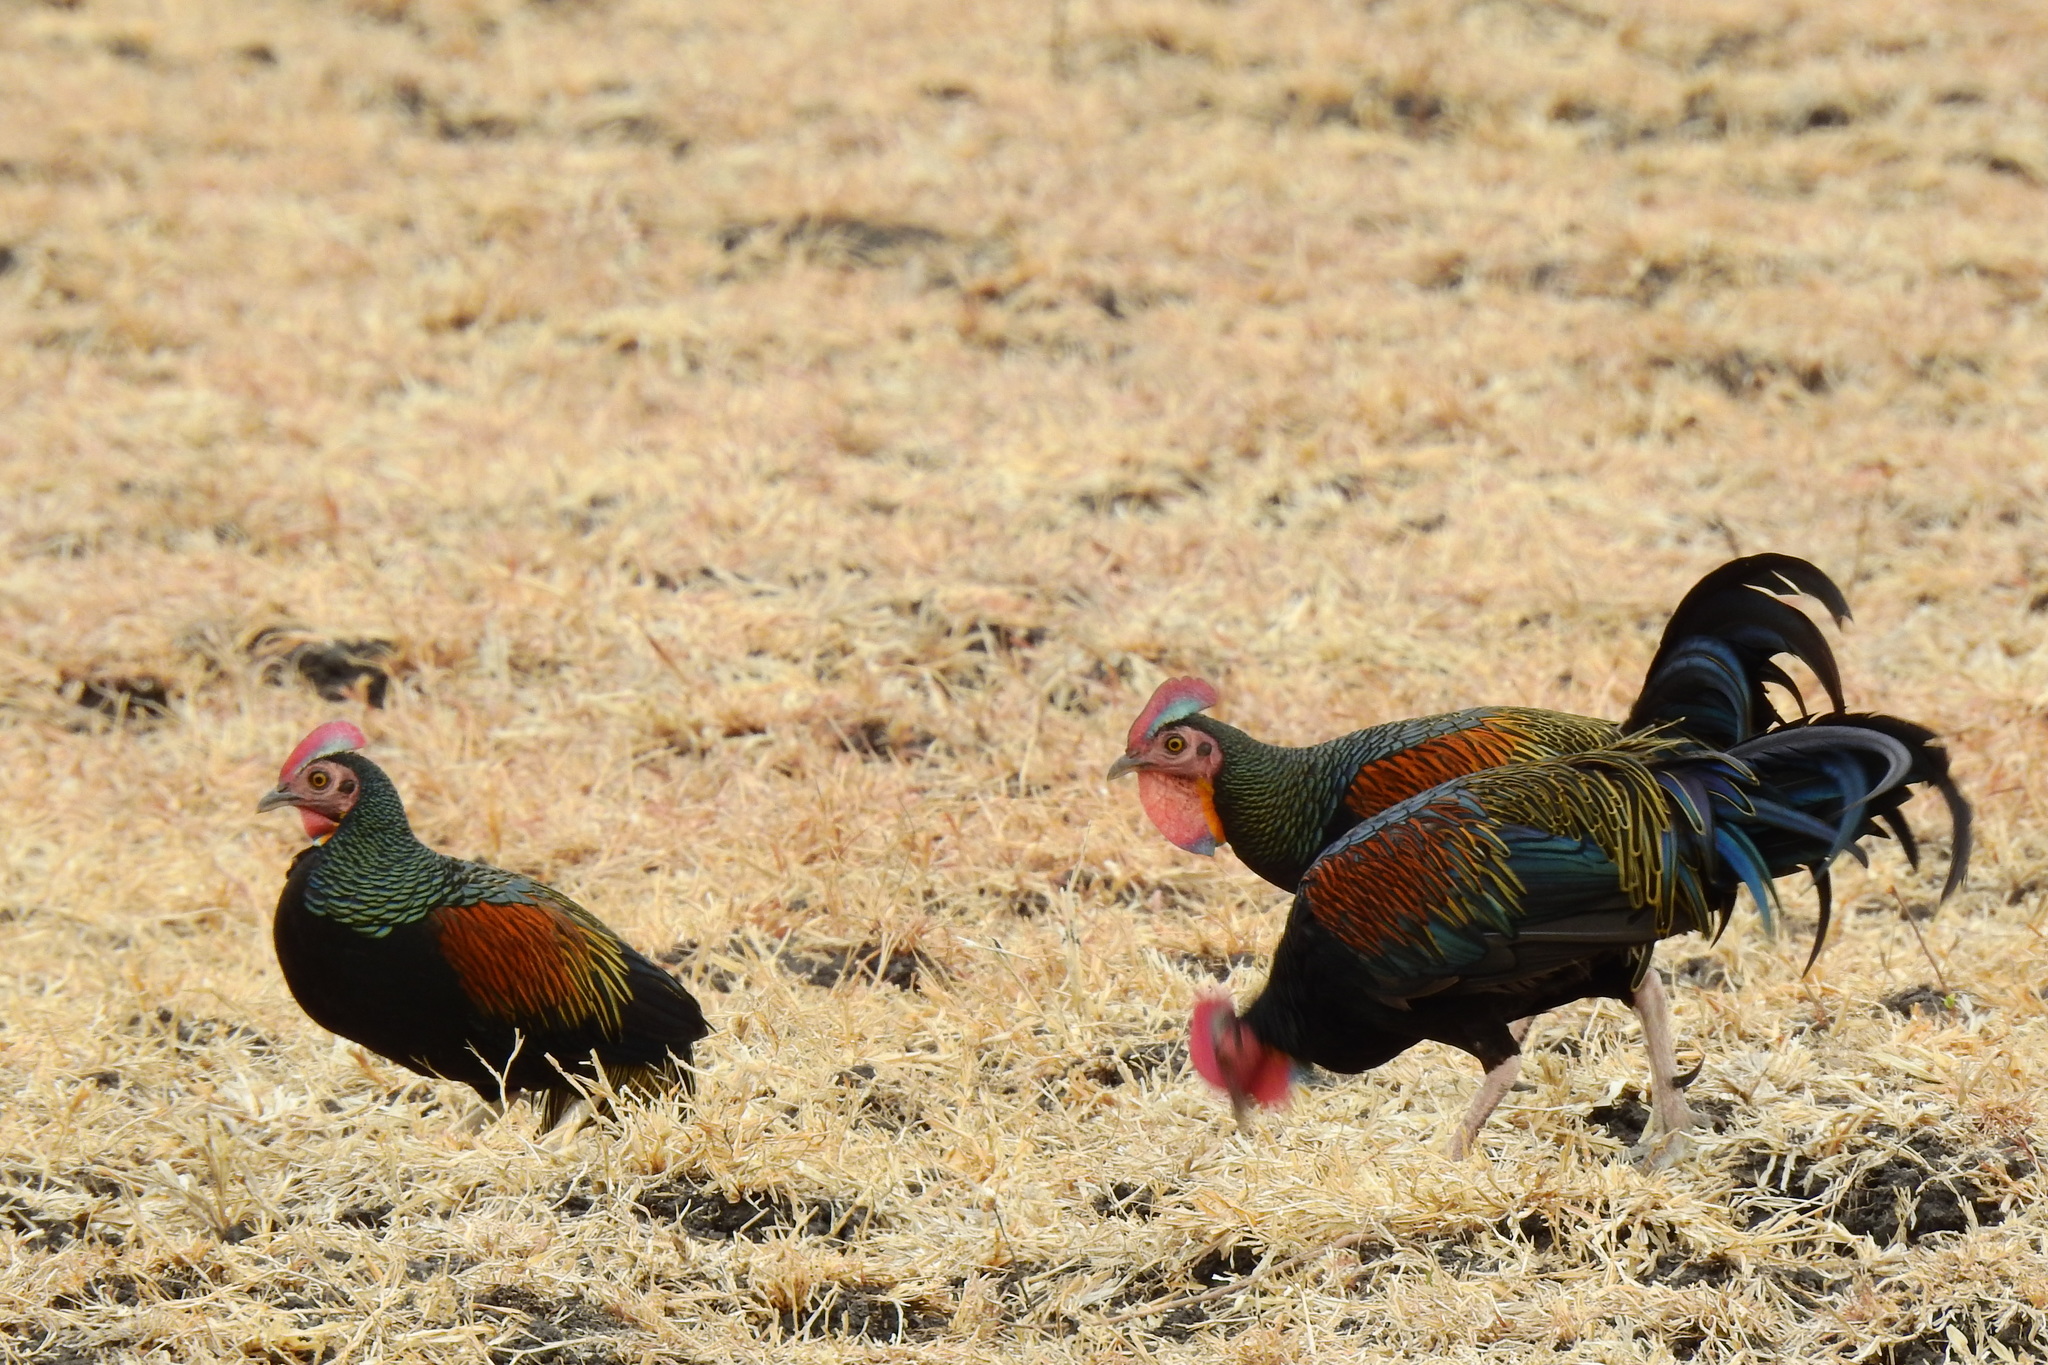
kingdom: Animalia
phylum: Chordata
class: Aves
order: Galliformes
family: Phasianidae
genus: Gallus
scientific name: Gallus varius
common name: Green junglefowl
